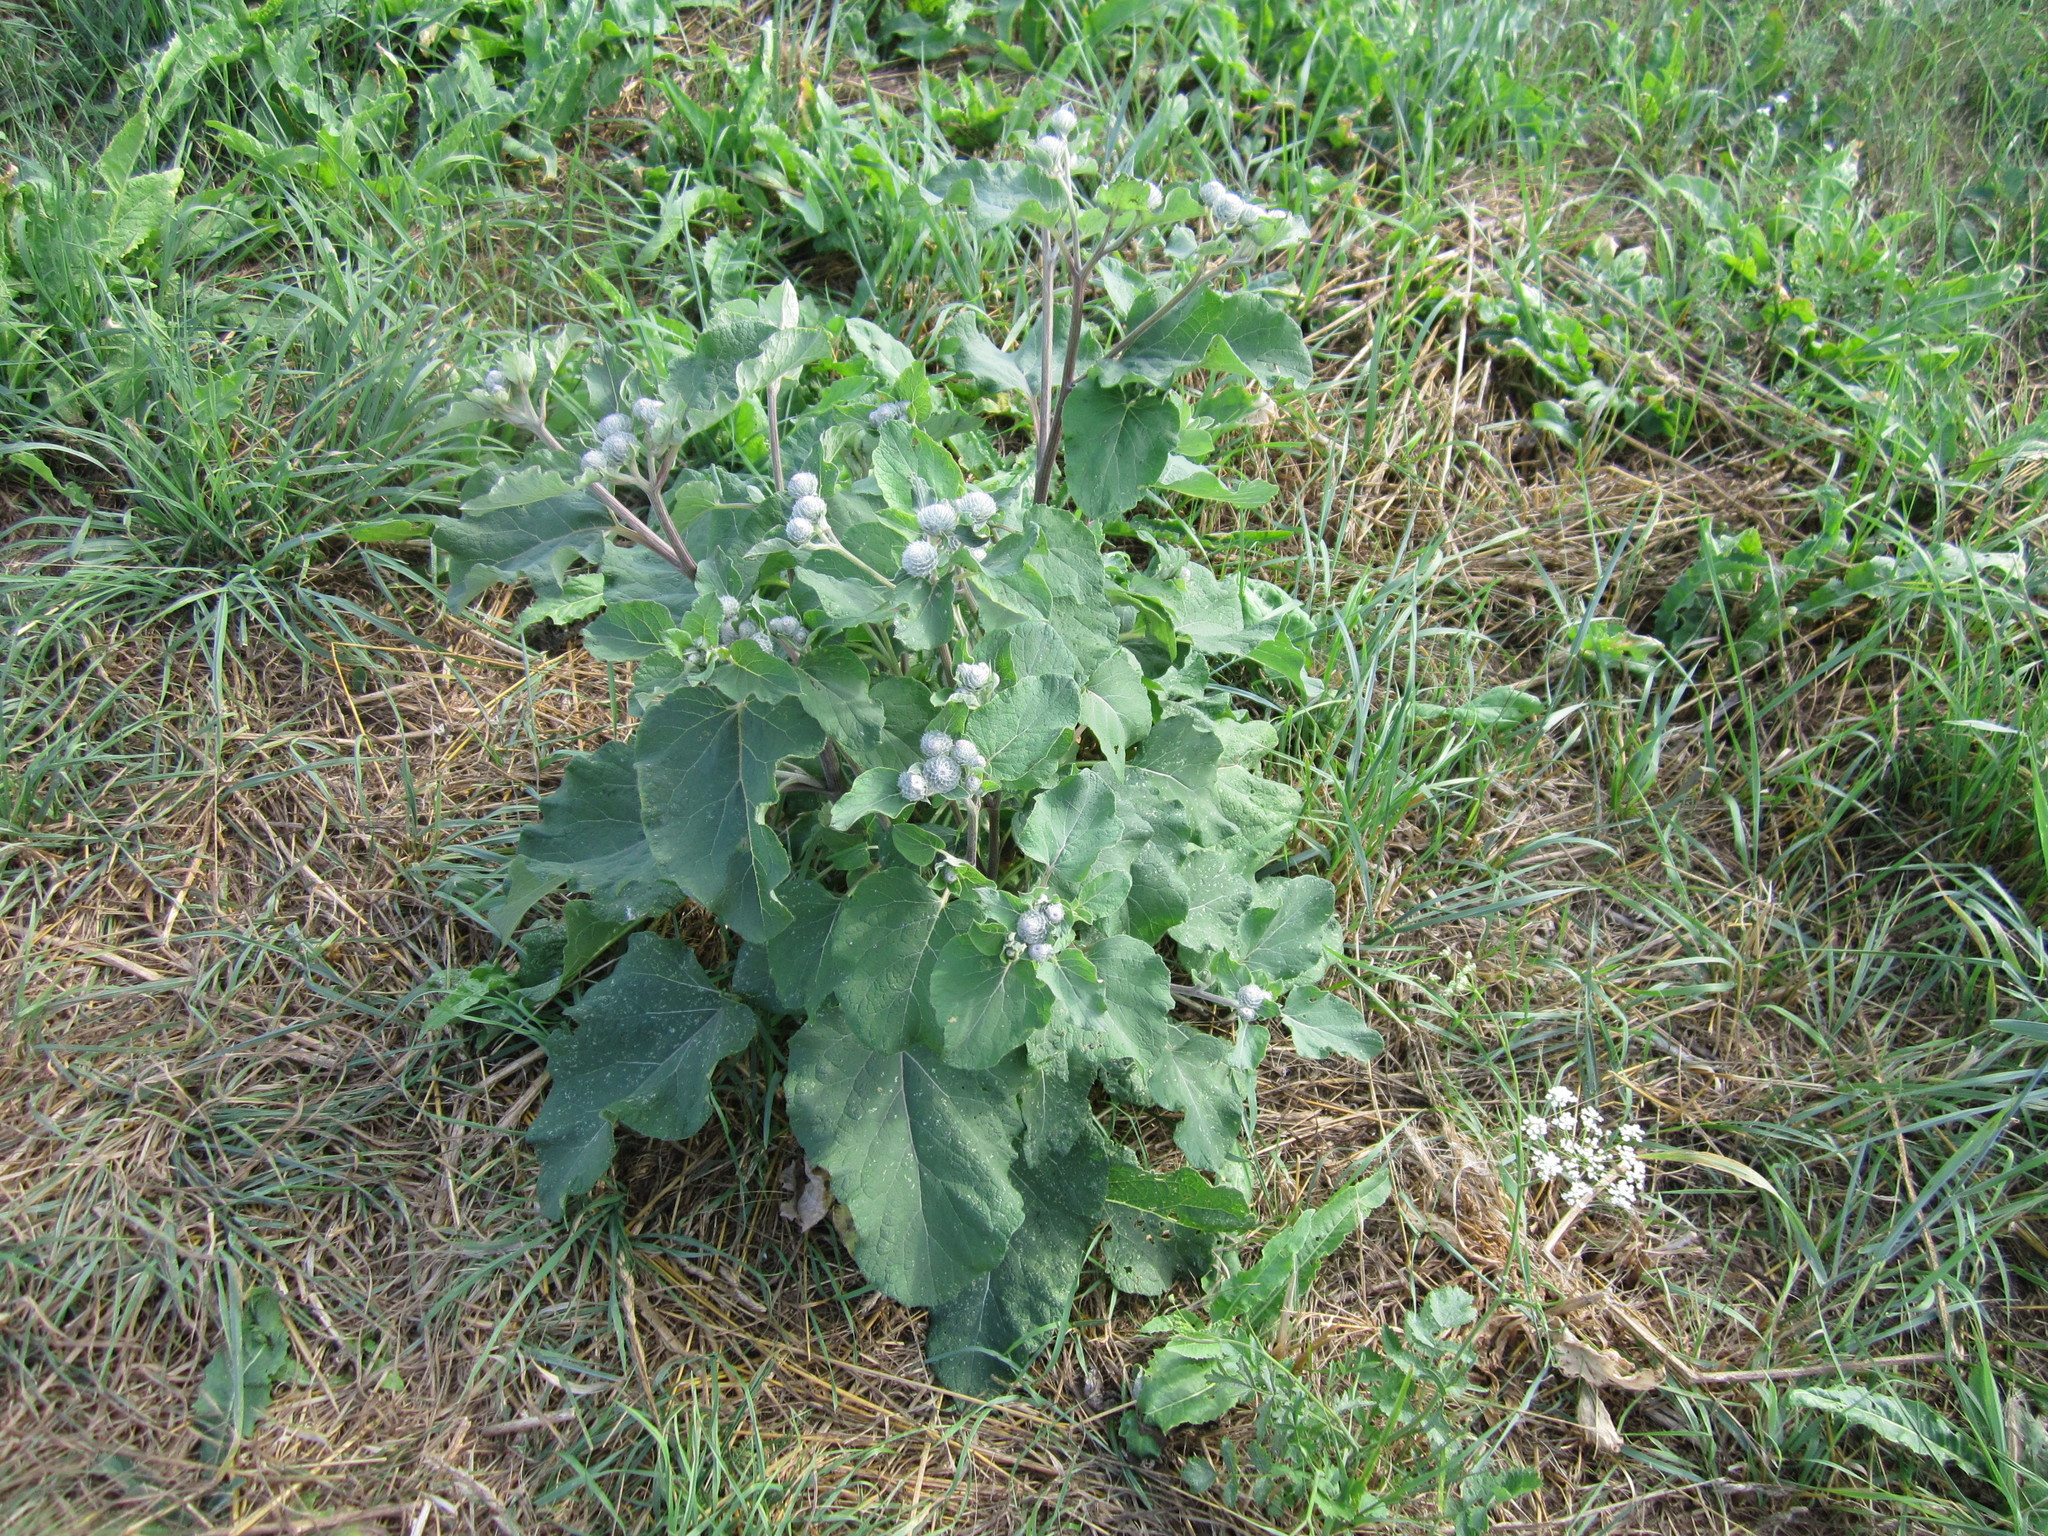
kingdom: Plantae
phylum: Tracheophyta
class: Magnoliopsida
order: Asterales
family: Asteraceae
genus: Arctium
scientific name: Arctium tomentosum
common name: Woolly burdock
